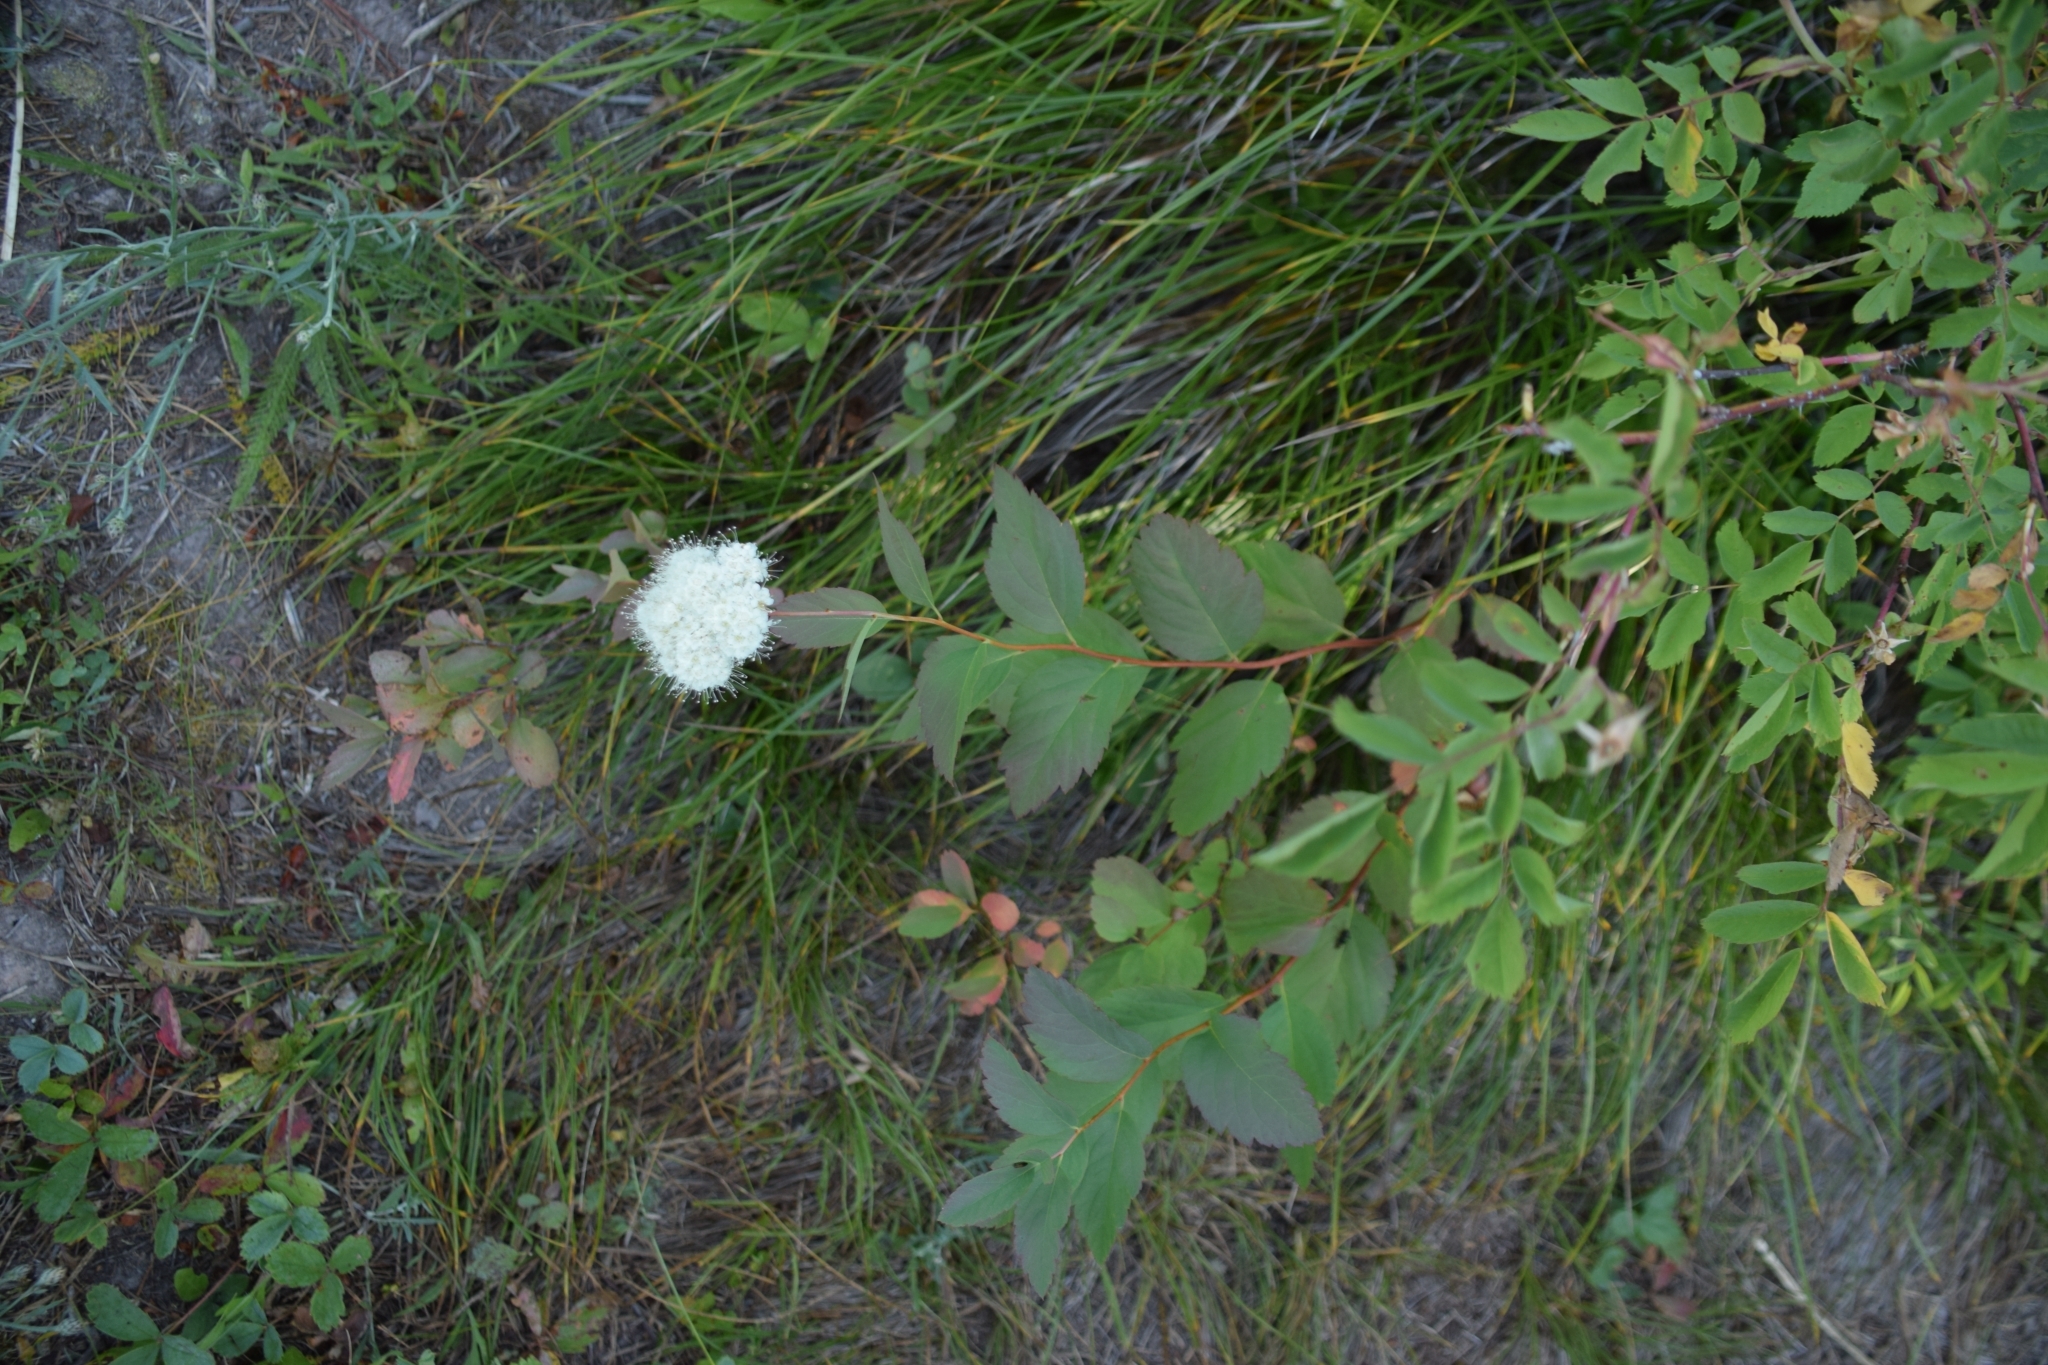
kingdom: Plantae
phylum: Tracheophyta
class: Magnoliopsida
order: Rosales
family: Rosaceae
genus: Spiraea
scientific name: Spiraea lucida
